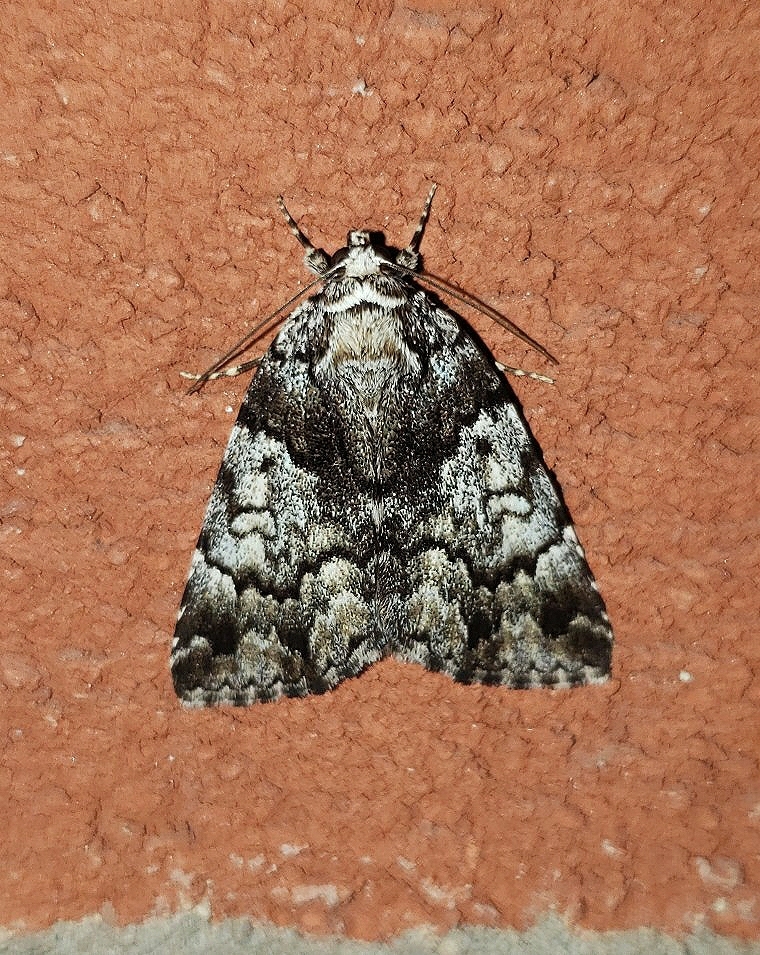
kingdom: Animalia
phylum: Arthropoda
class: Insecta
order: Lepidoptera
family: Erebidae
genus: Allotria
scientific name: Allotria elonympha
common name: False underwing
